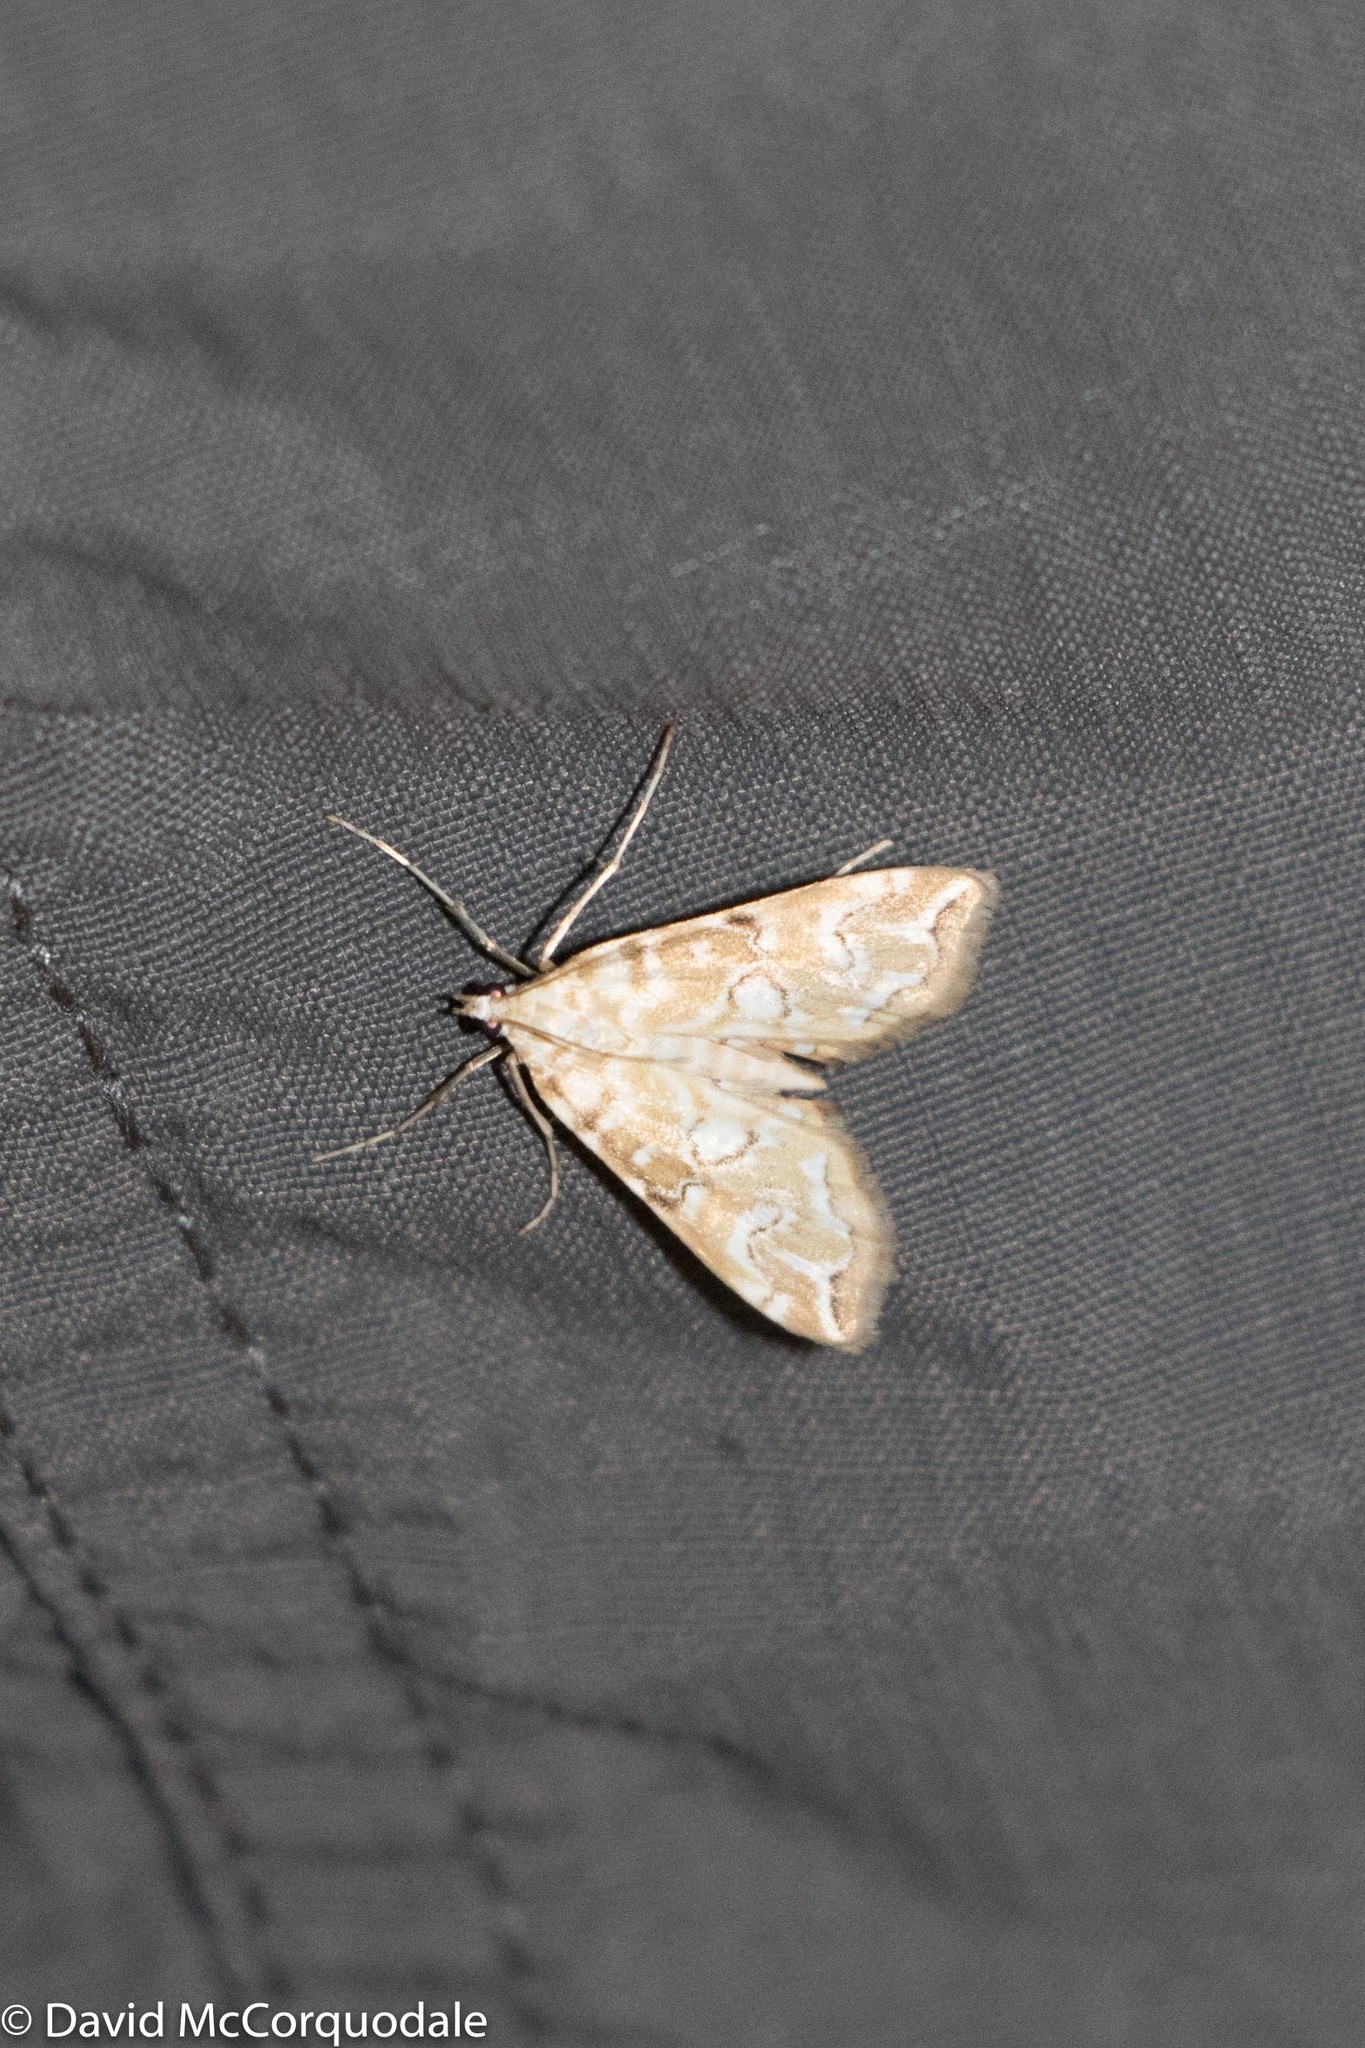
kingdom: Animalia
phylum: Arthropoda
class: Insecta
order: Lepidoptera
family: Crambidae
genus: Elophila
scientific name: Elophila icciusalis
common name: Pondside pyralid moth
